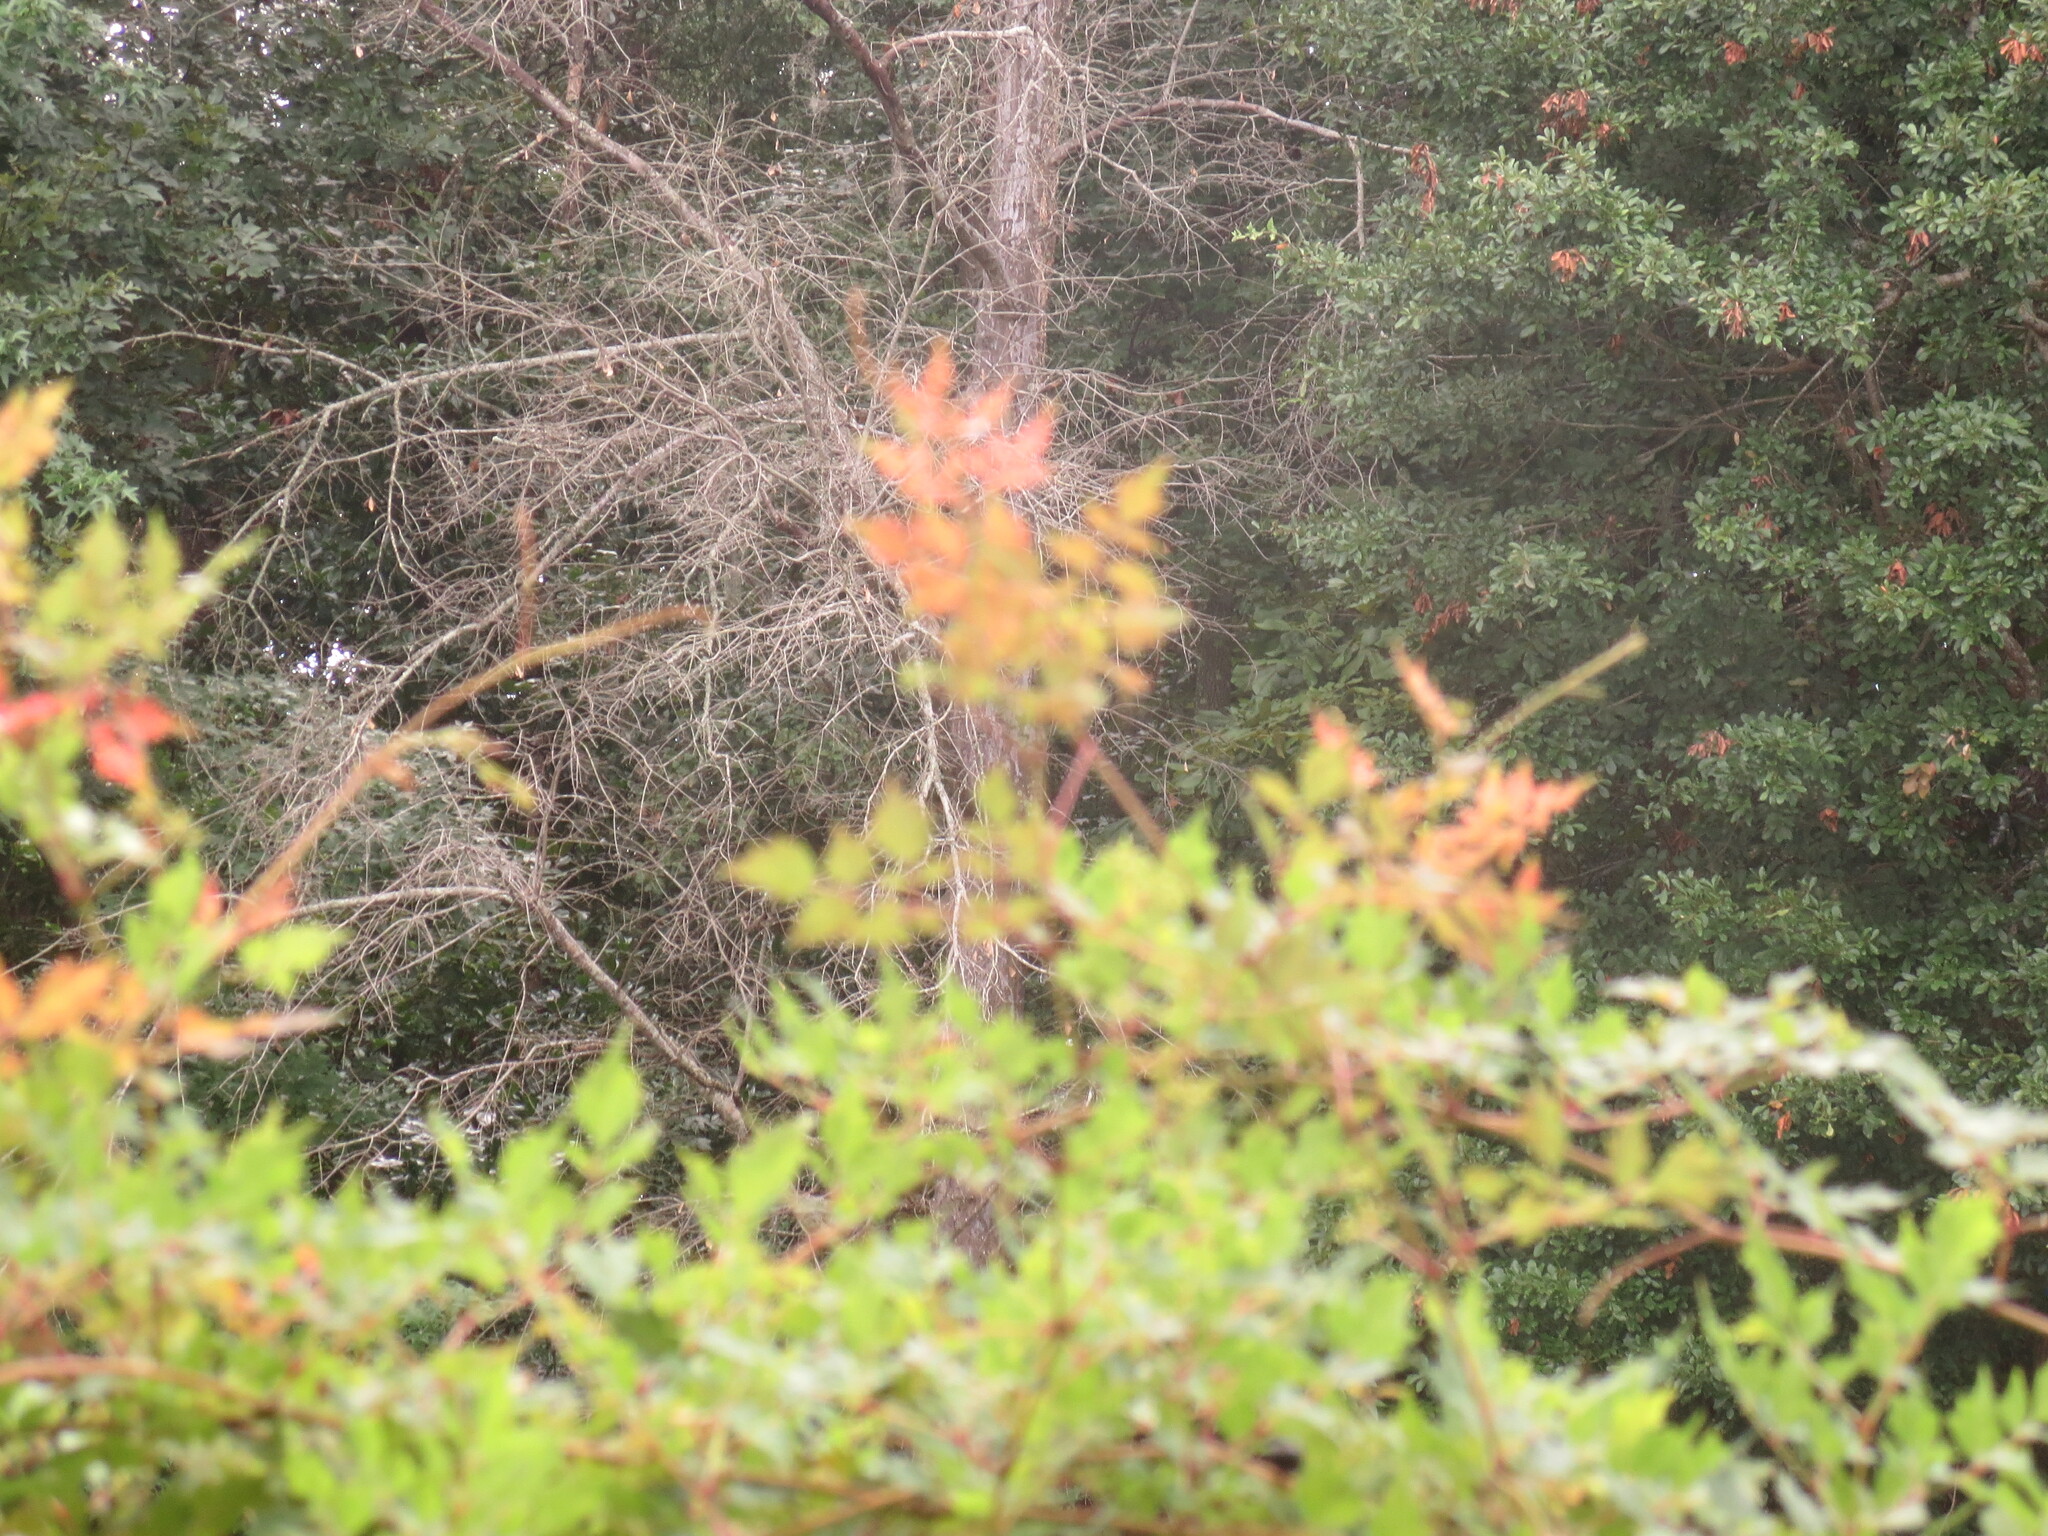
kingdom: Plantae
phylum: Tracheophyta
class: Magnoliopsida
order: Vitales
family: Vitaceae
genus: Nekemias
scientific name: Nekemias arborea
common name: Peppervine
